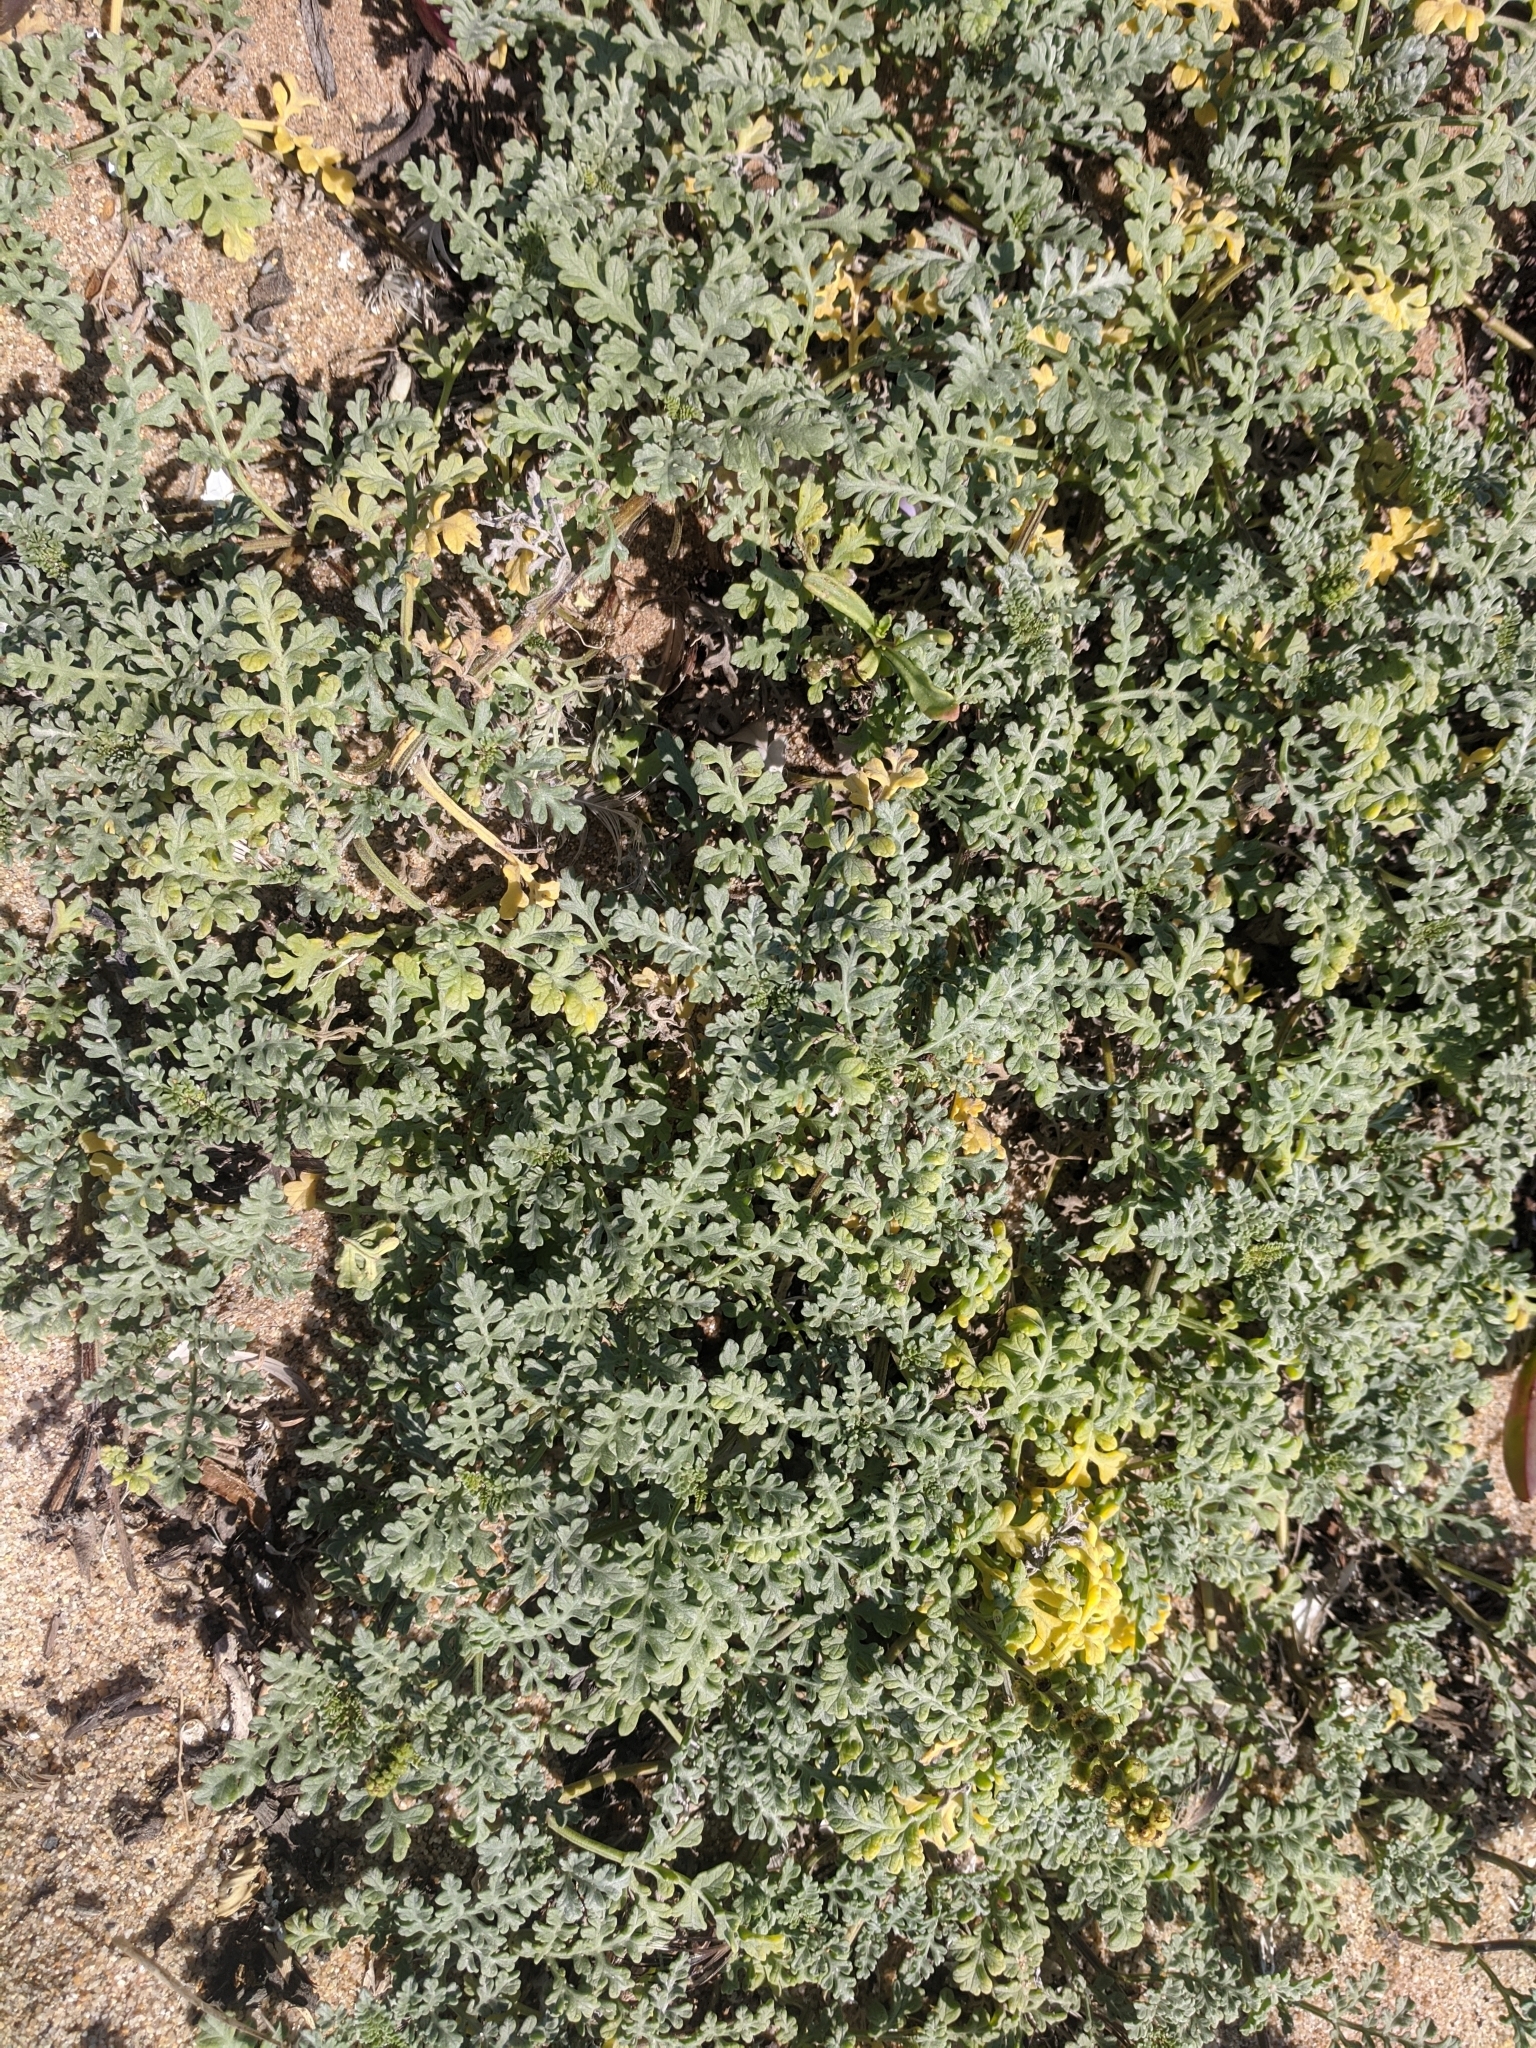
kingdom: Plantae
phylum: Tracheophyta
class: Magnoliopsida
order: Asterales
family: Asteraceae
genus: Ambrosia
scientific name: Ambrosia chamissonis
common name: Beachbur
